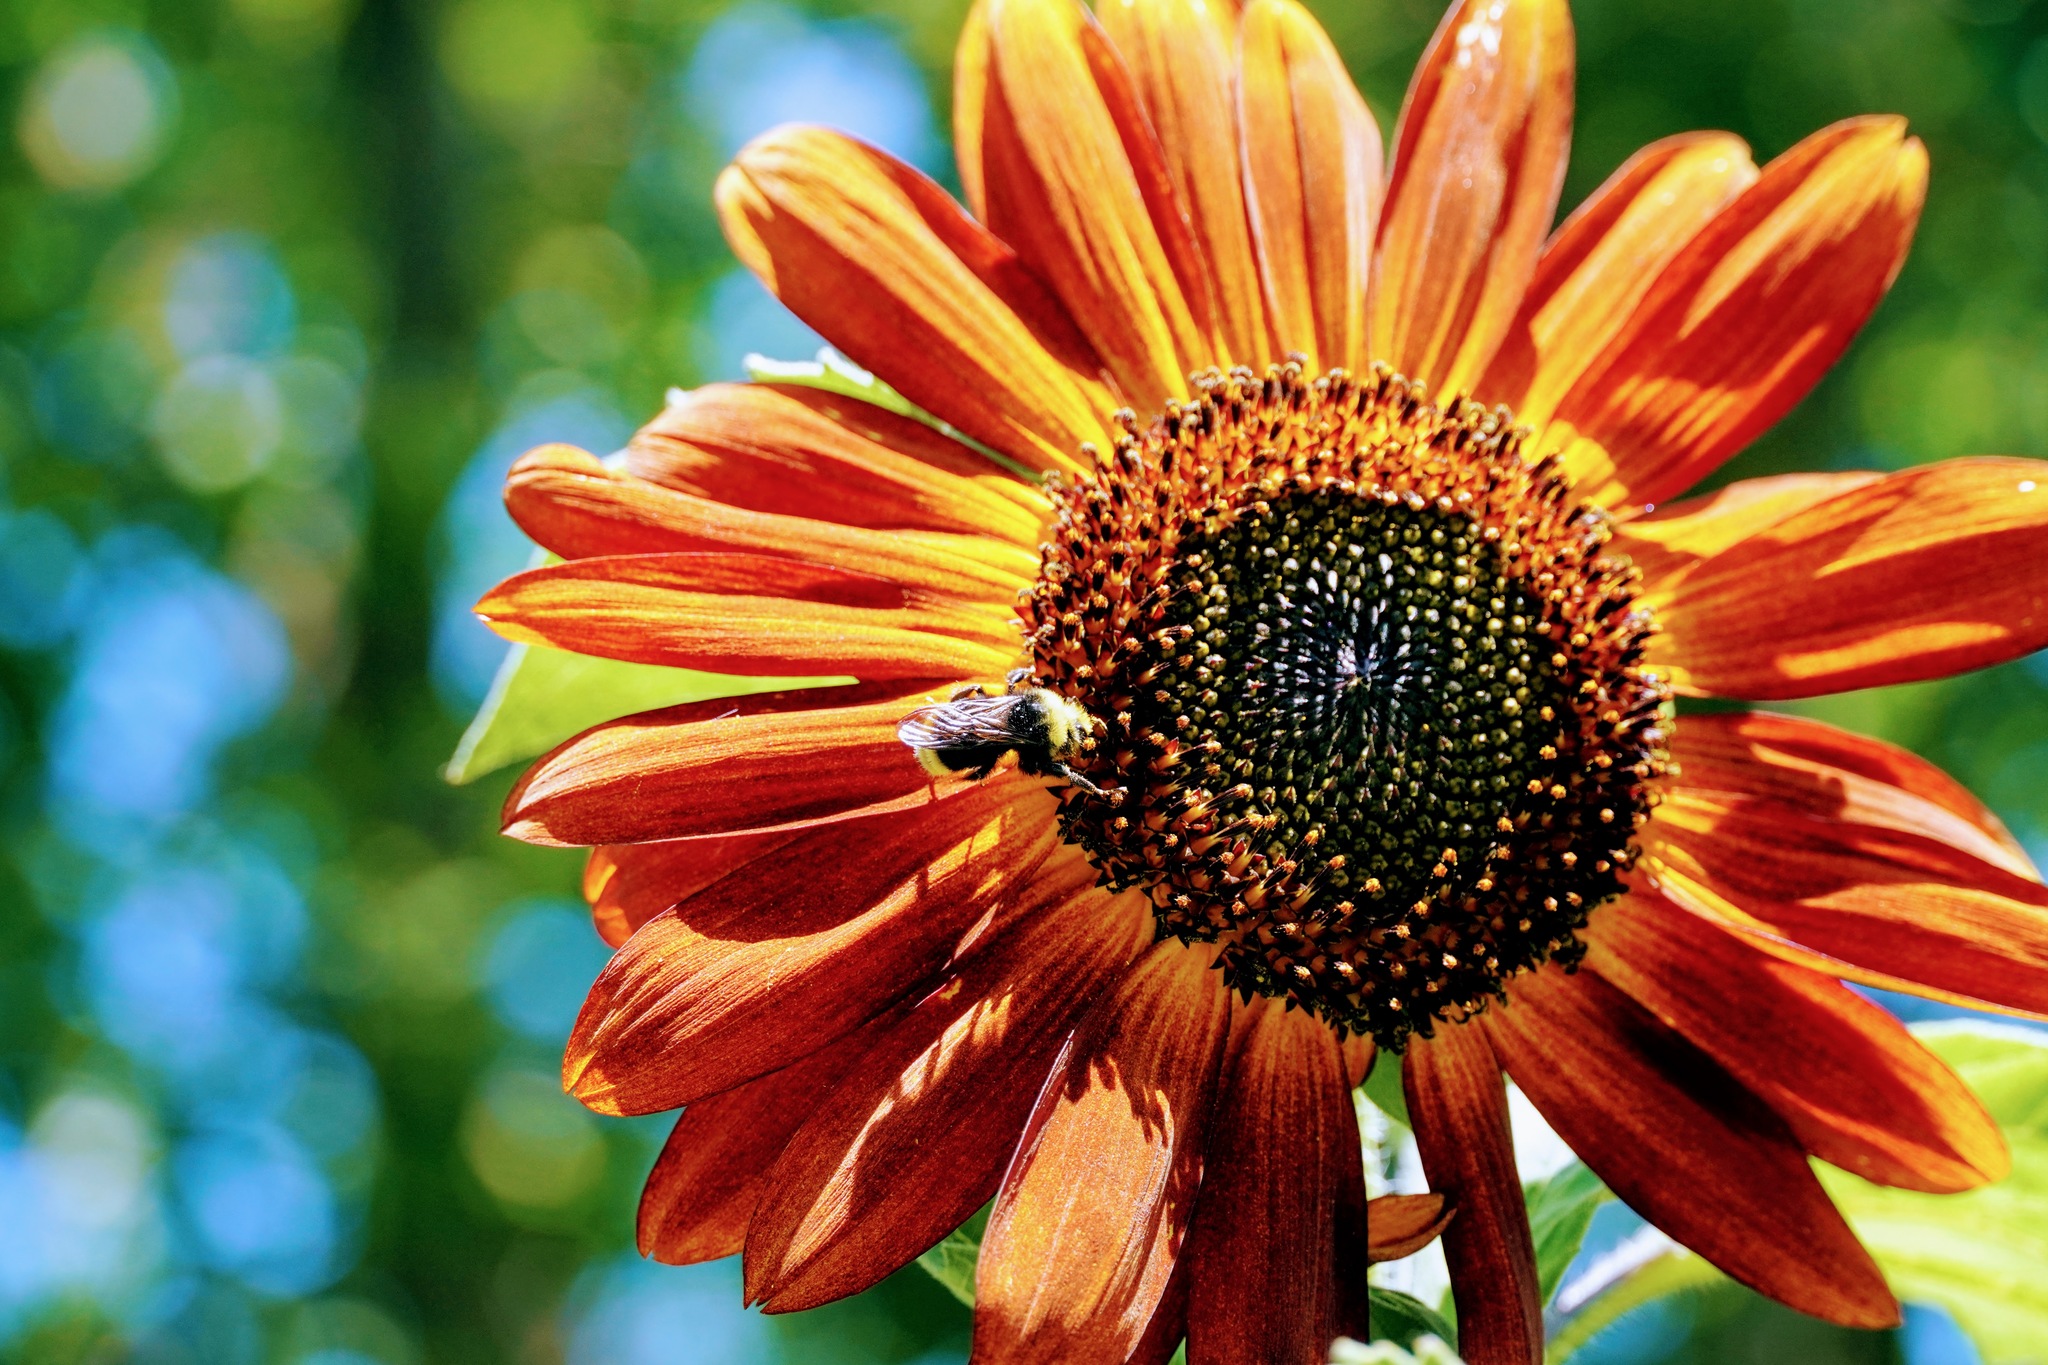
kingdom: Animalia
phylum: Arthropoda
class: Insecta
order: Hymenoptera
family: Apidae
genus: Bombus
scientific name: Bombus vosnesenskii
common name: Vosnesensky bumble bee
